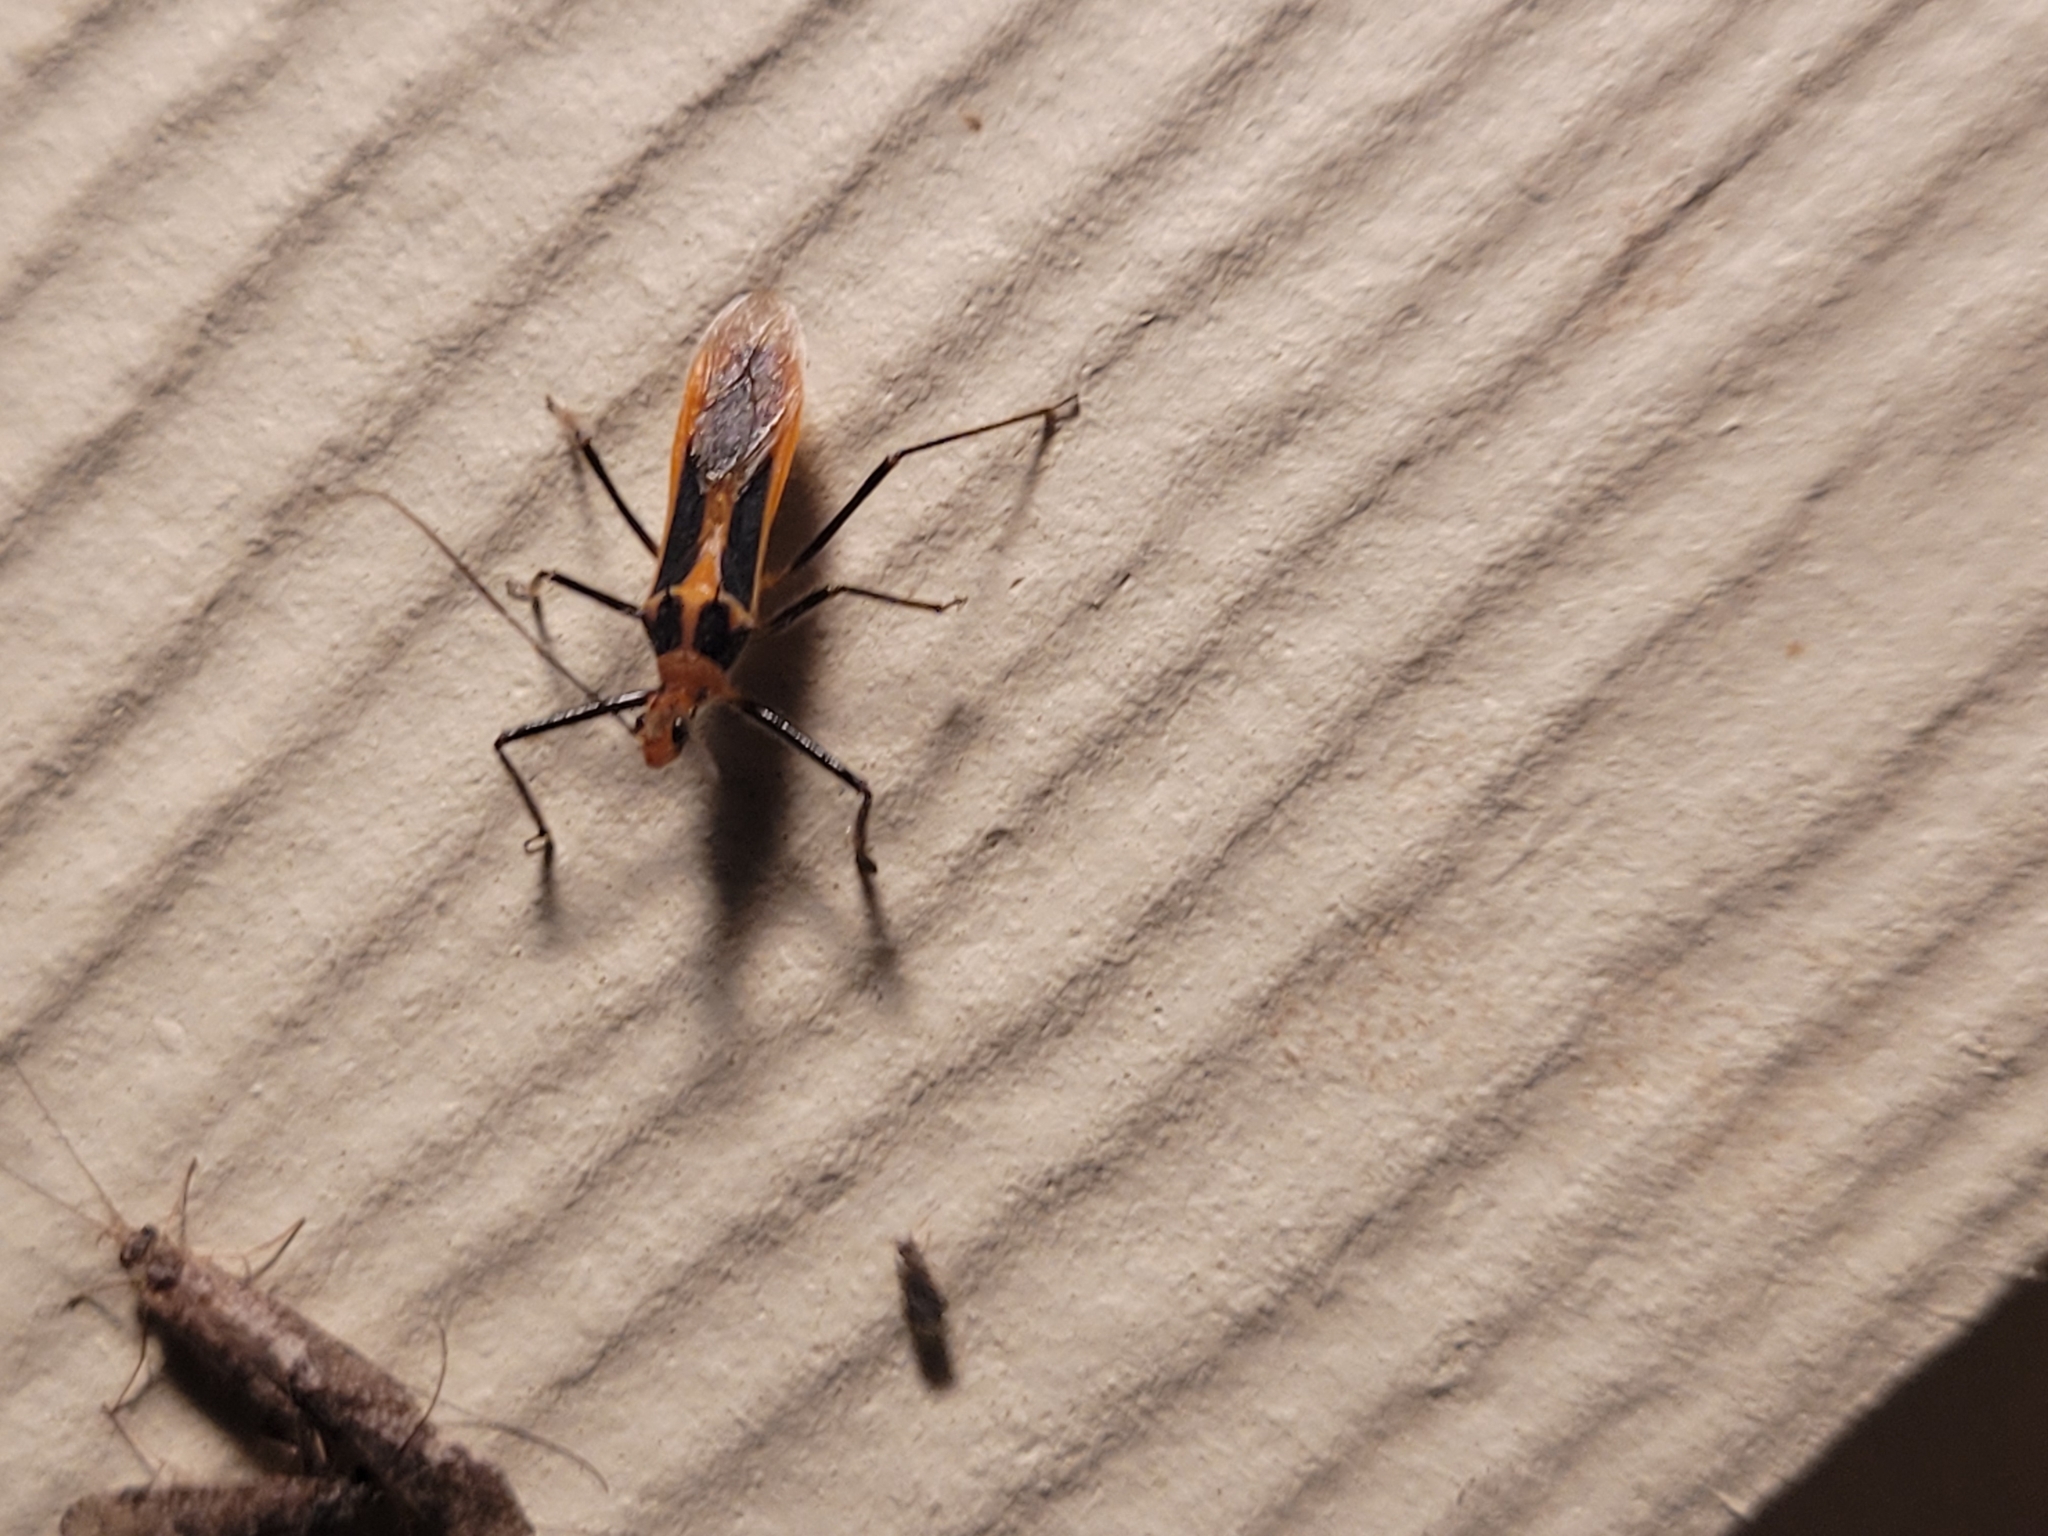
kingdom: Animalia
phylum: Arthropoda
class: Insecta
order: Hemiptera
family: Reduviidae
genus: Repipta
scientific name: Repipta taurus
